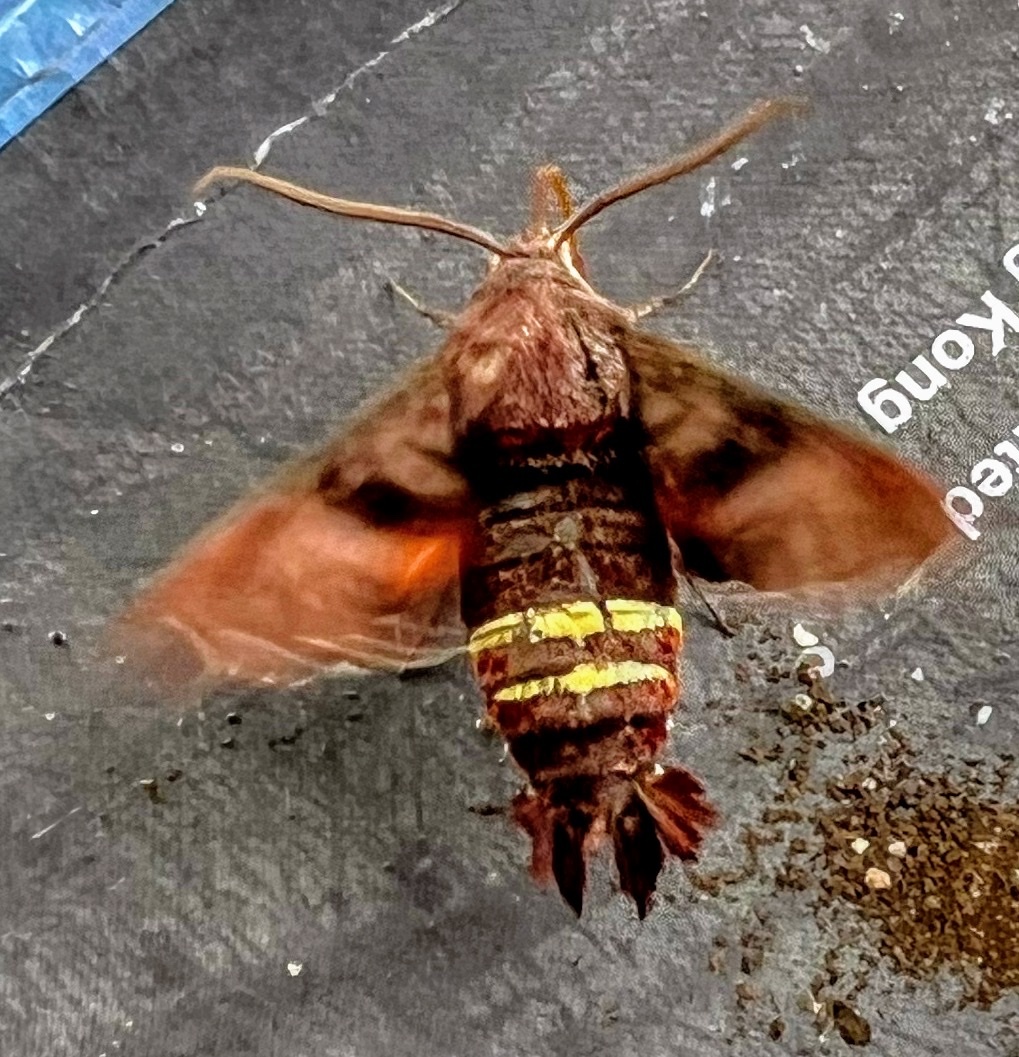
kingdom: Animalia
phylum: Arthropoda
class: Insecta
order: Lepidoptera
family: Sphingidae
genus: Amphion
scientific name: Amphion floridensis
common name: Nessus sphinx
